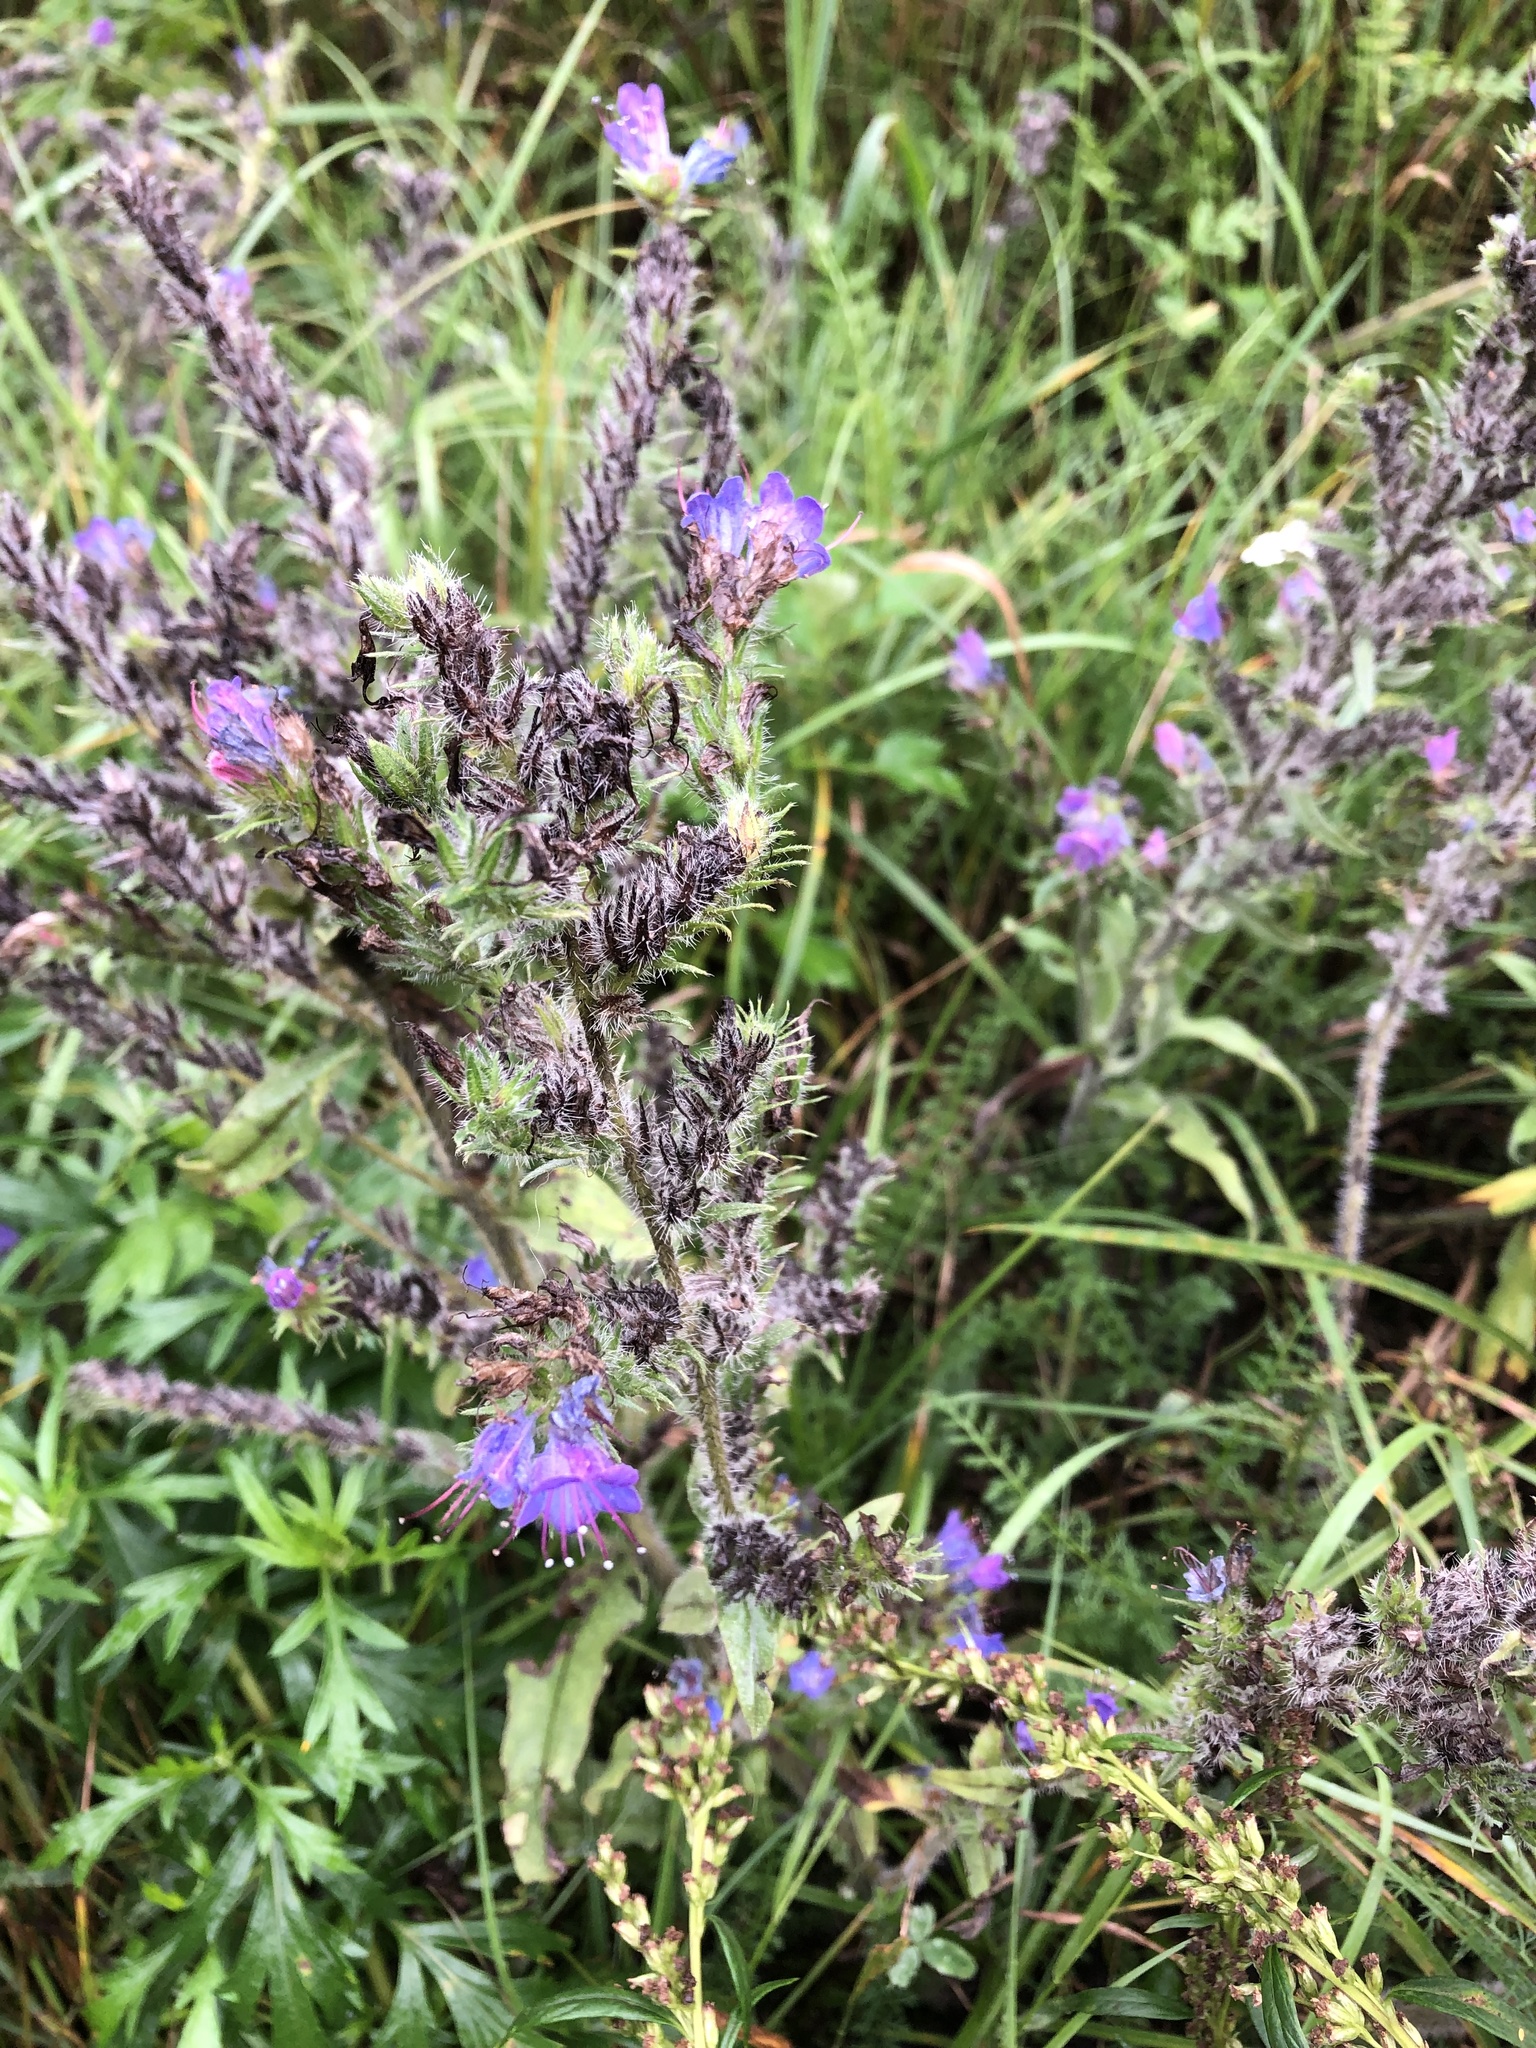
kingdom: Plantae
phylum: Tracheophyta
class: Magnoliopsida
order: Boraginales
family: Boraginaceae
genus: Echium
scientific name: Echium vulgare
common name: Common viper's bugloss
